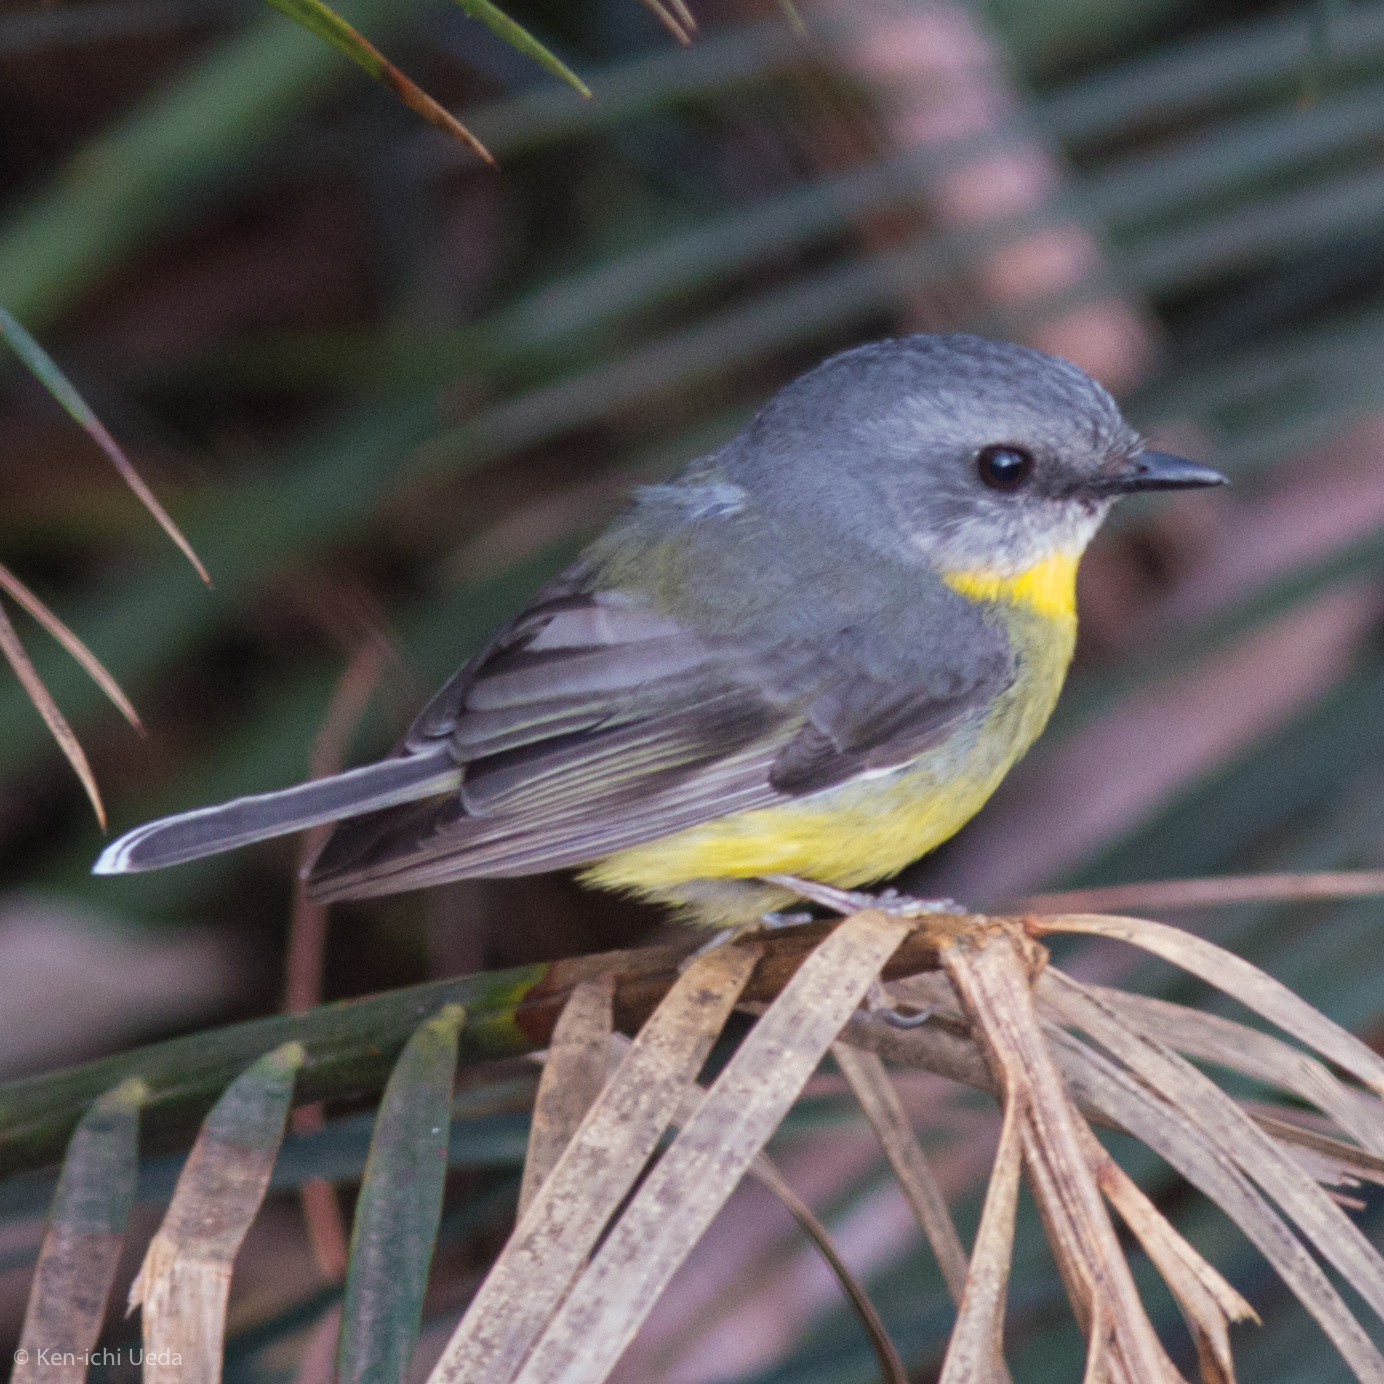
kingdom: Animalia
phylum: Chordata
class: Aves
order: Passeriformes
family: Petroicidae
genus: Eopsaltria
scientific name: Eopsaltria australis
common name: Eastern yellow robin
